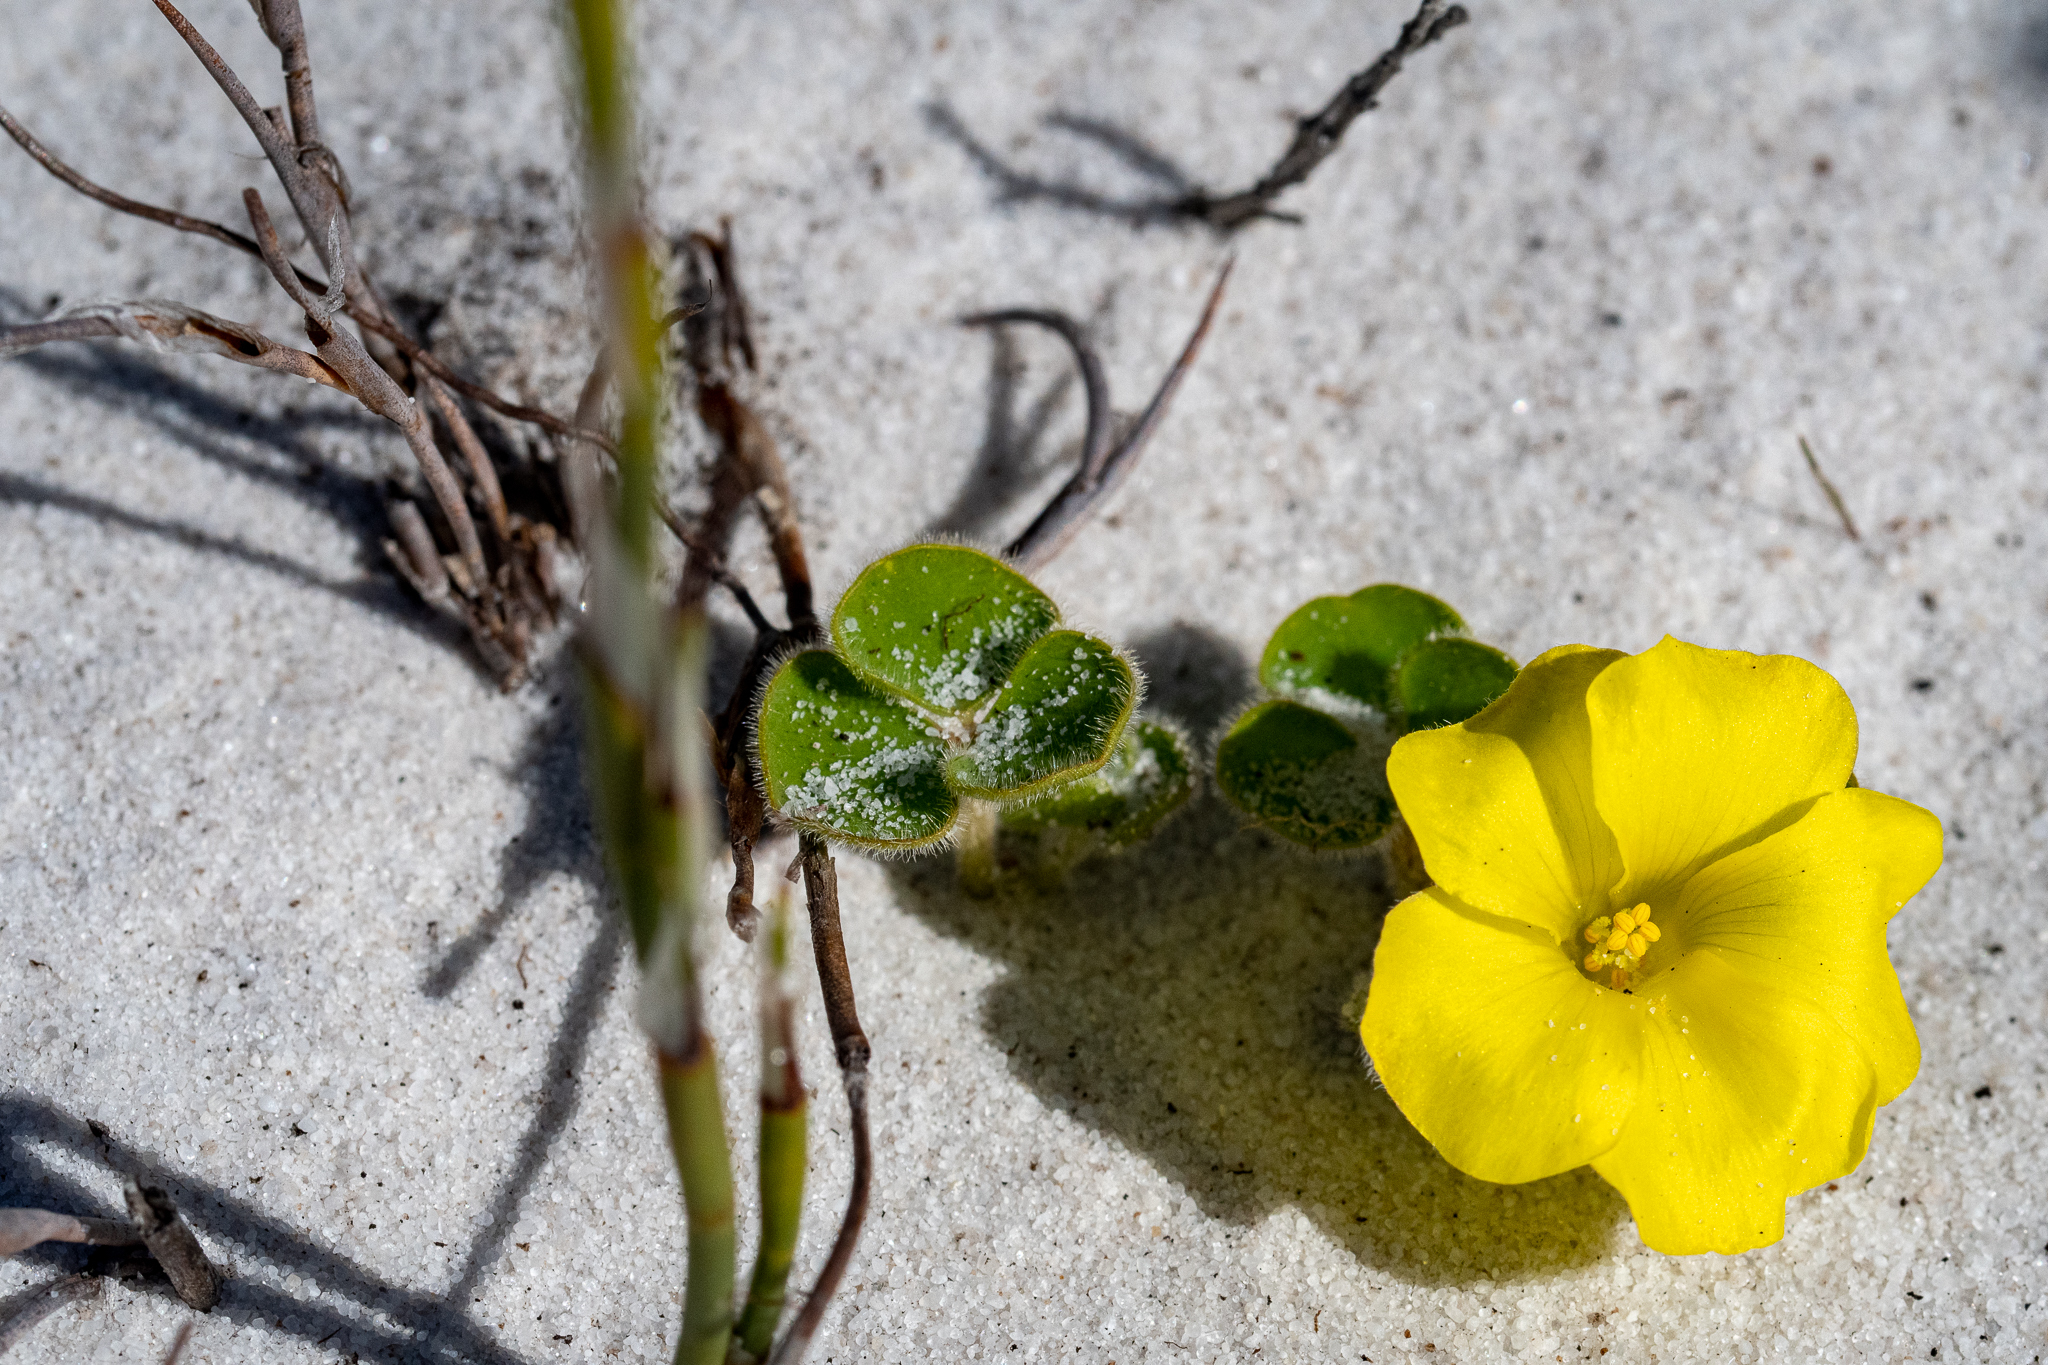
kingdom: Plantae
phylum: Tracheophyta
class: Magnoliopsida
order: Oxalidales
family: Oxalidaceae
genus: Oxalis
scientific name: Oxalis luteola
